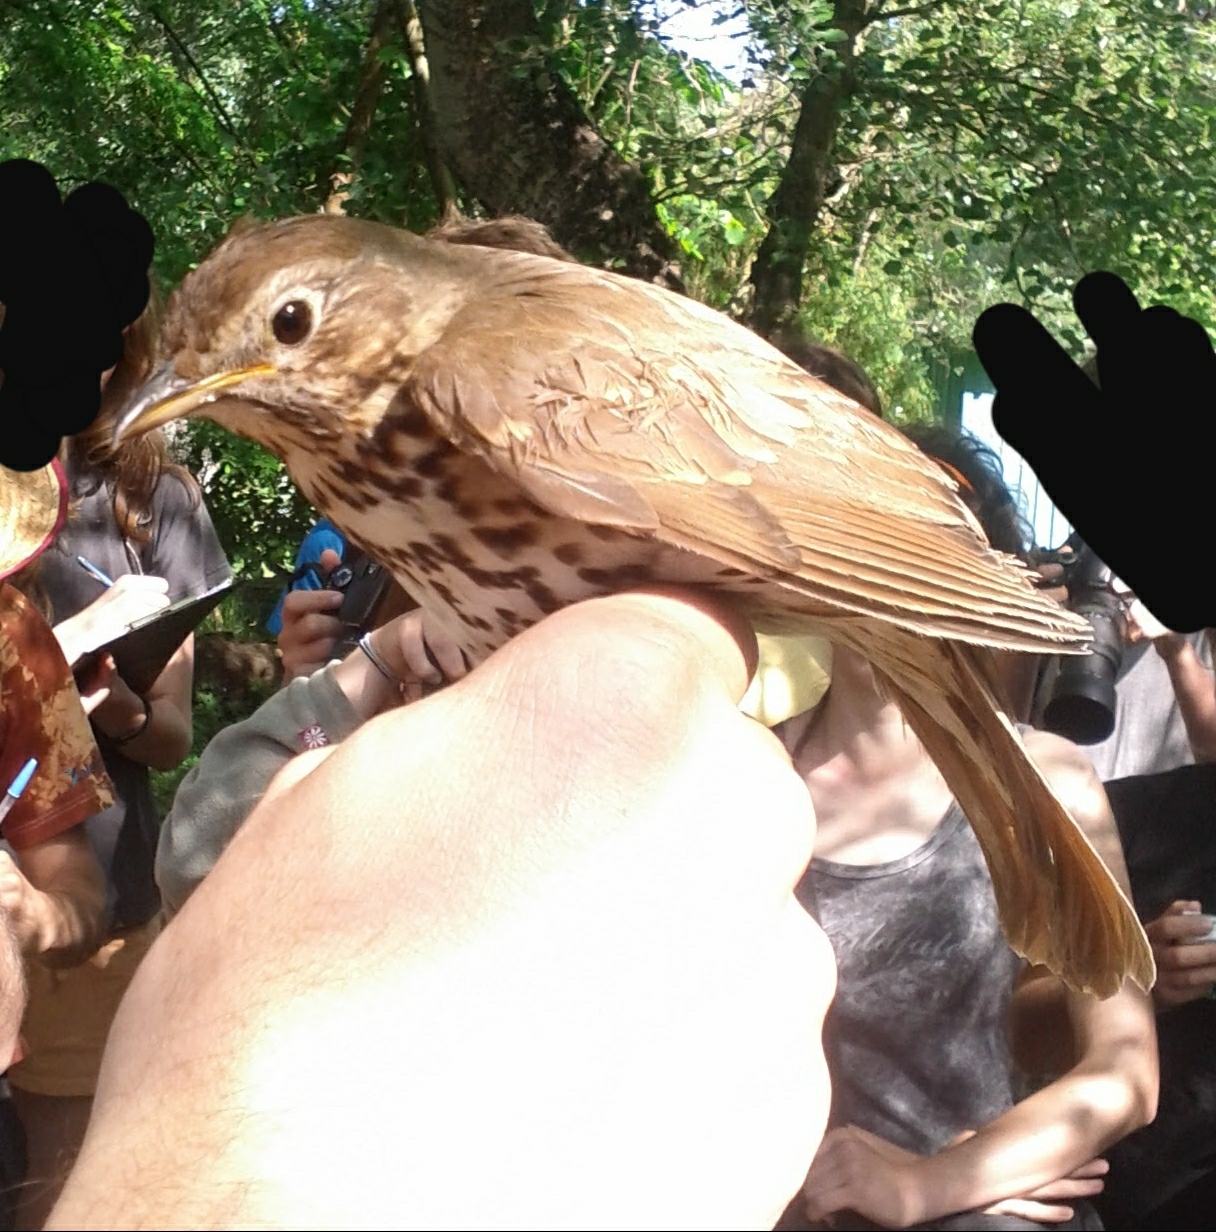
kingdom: Animalia
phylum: Chordata
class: Aves
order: Passeriformes
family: Turdidae
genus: Turdus
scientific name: Turdus philomelos
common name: Song thrush
